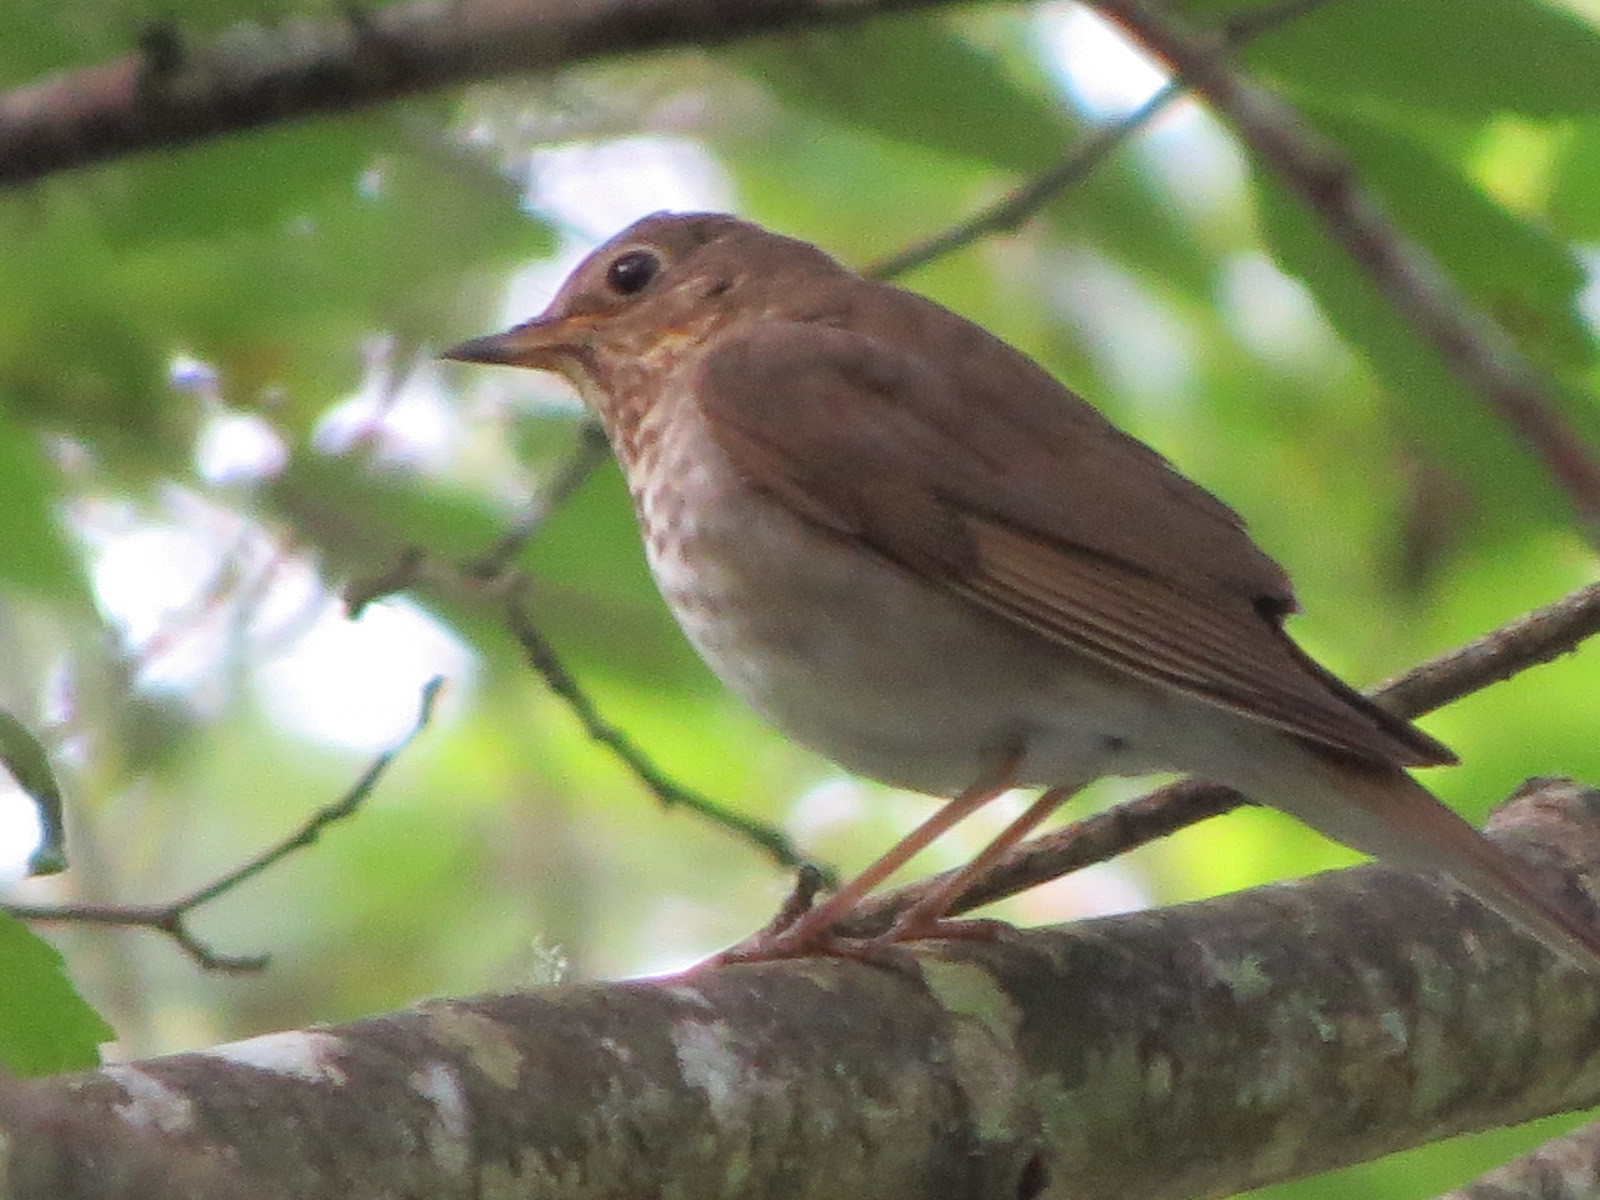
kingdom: Animalia
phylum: Chordata
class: Aves
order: Passeriformes
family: Turdidae
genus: Catharus
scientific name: Catharus ustulatus
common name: Swainson's thrush
